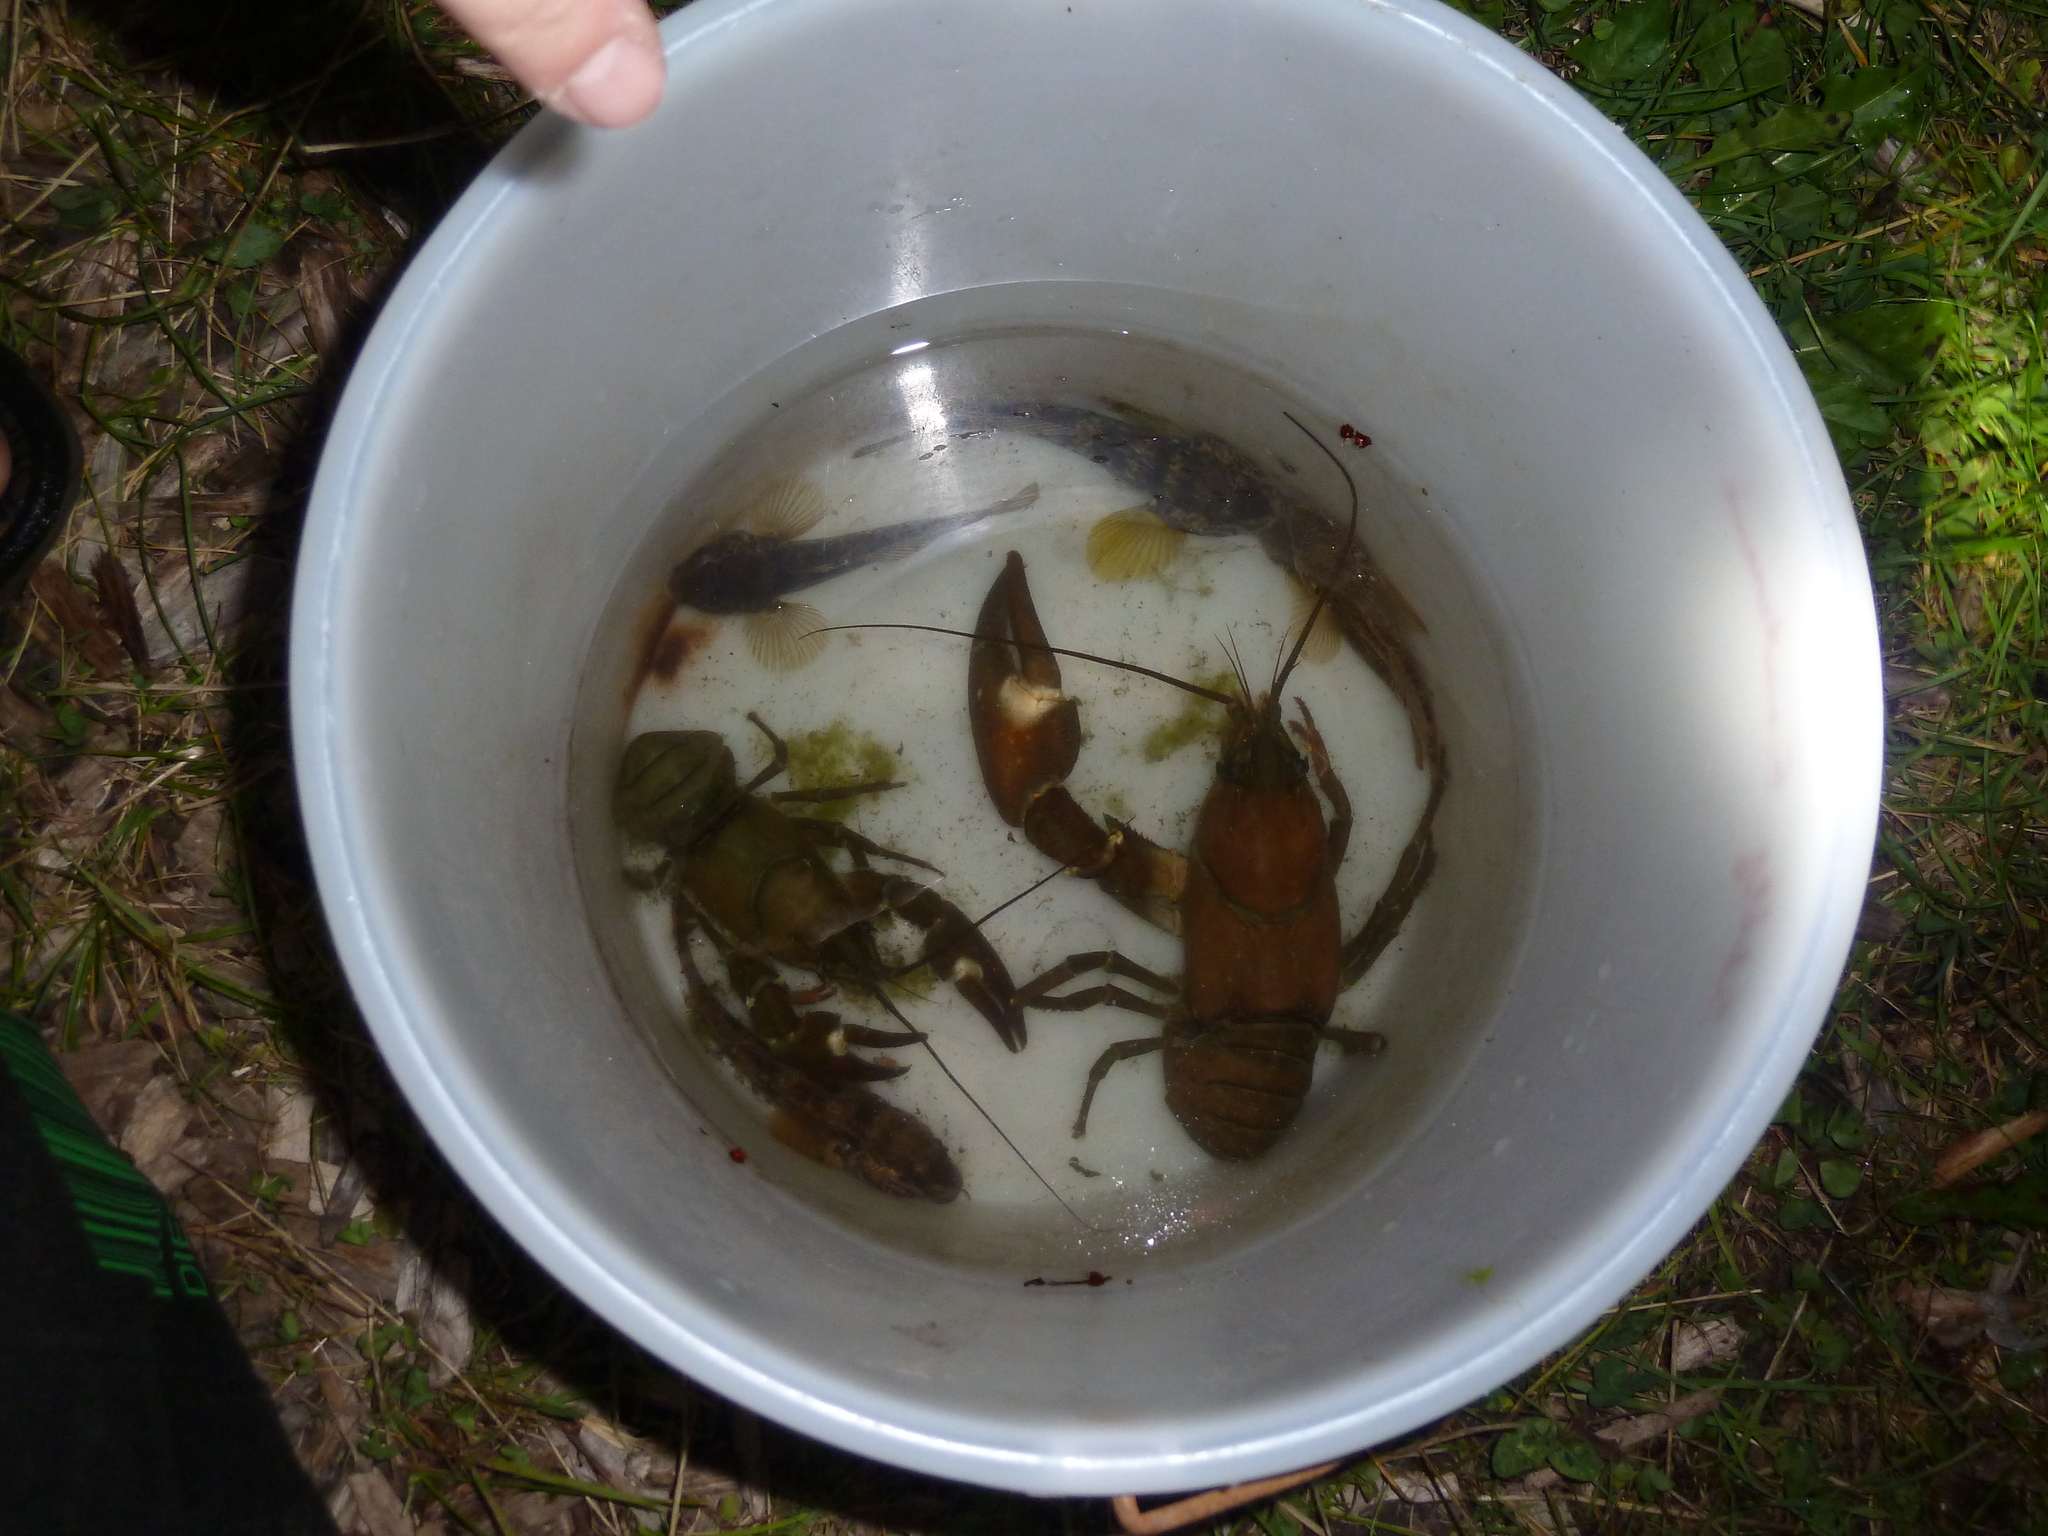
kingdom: Animalia
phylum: Arthropoda
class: Malacostraca
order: Decapoda
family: Astacidae
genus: Pacifastacus
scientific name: Pacifastacus leniusculus
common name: Signal crayfish
